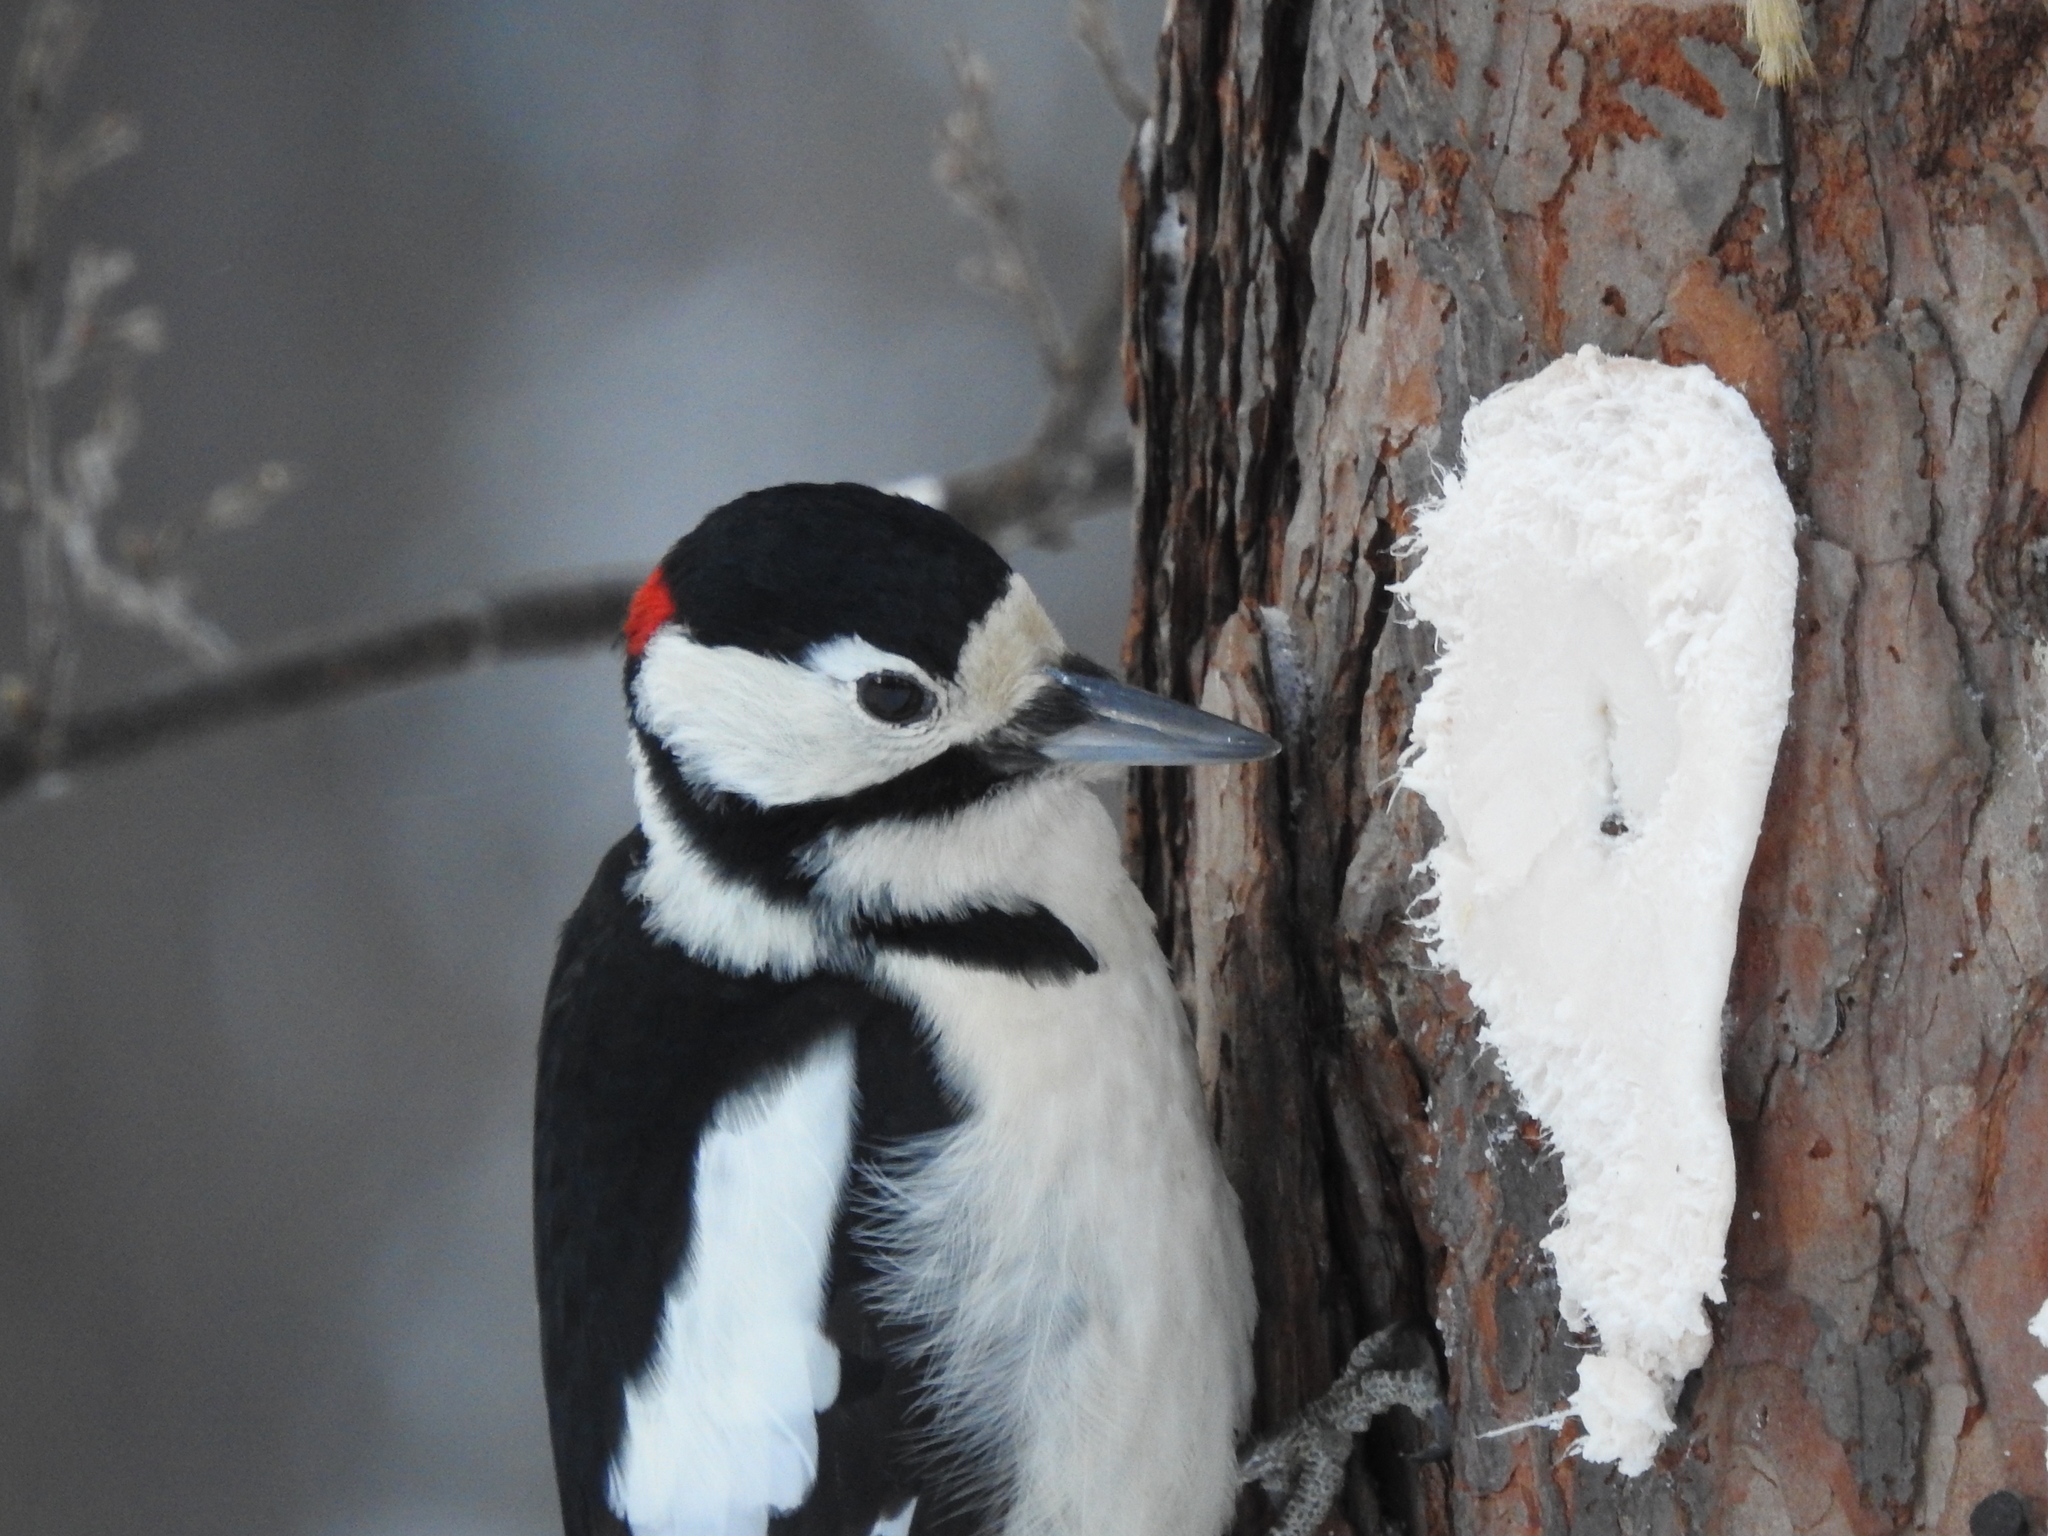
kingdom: Animalia
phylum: Chordata
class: Aves
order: Piciformes
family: Picidae
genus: Dendrocopos
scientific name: Dendrocopos major
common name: Great spotted woodpecker
